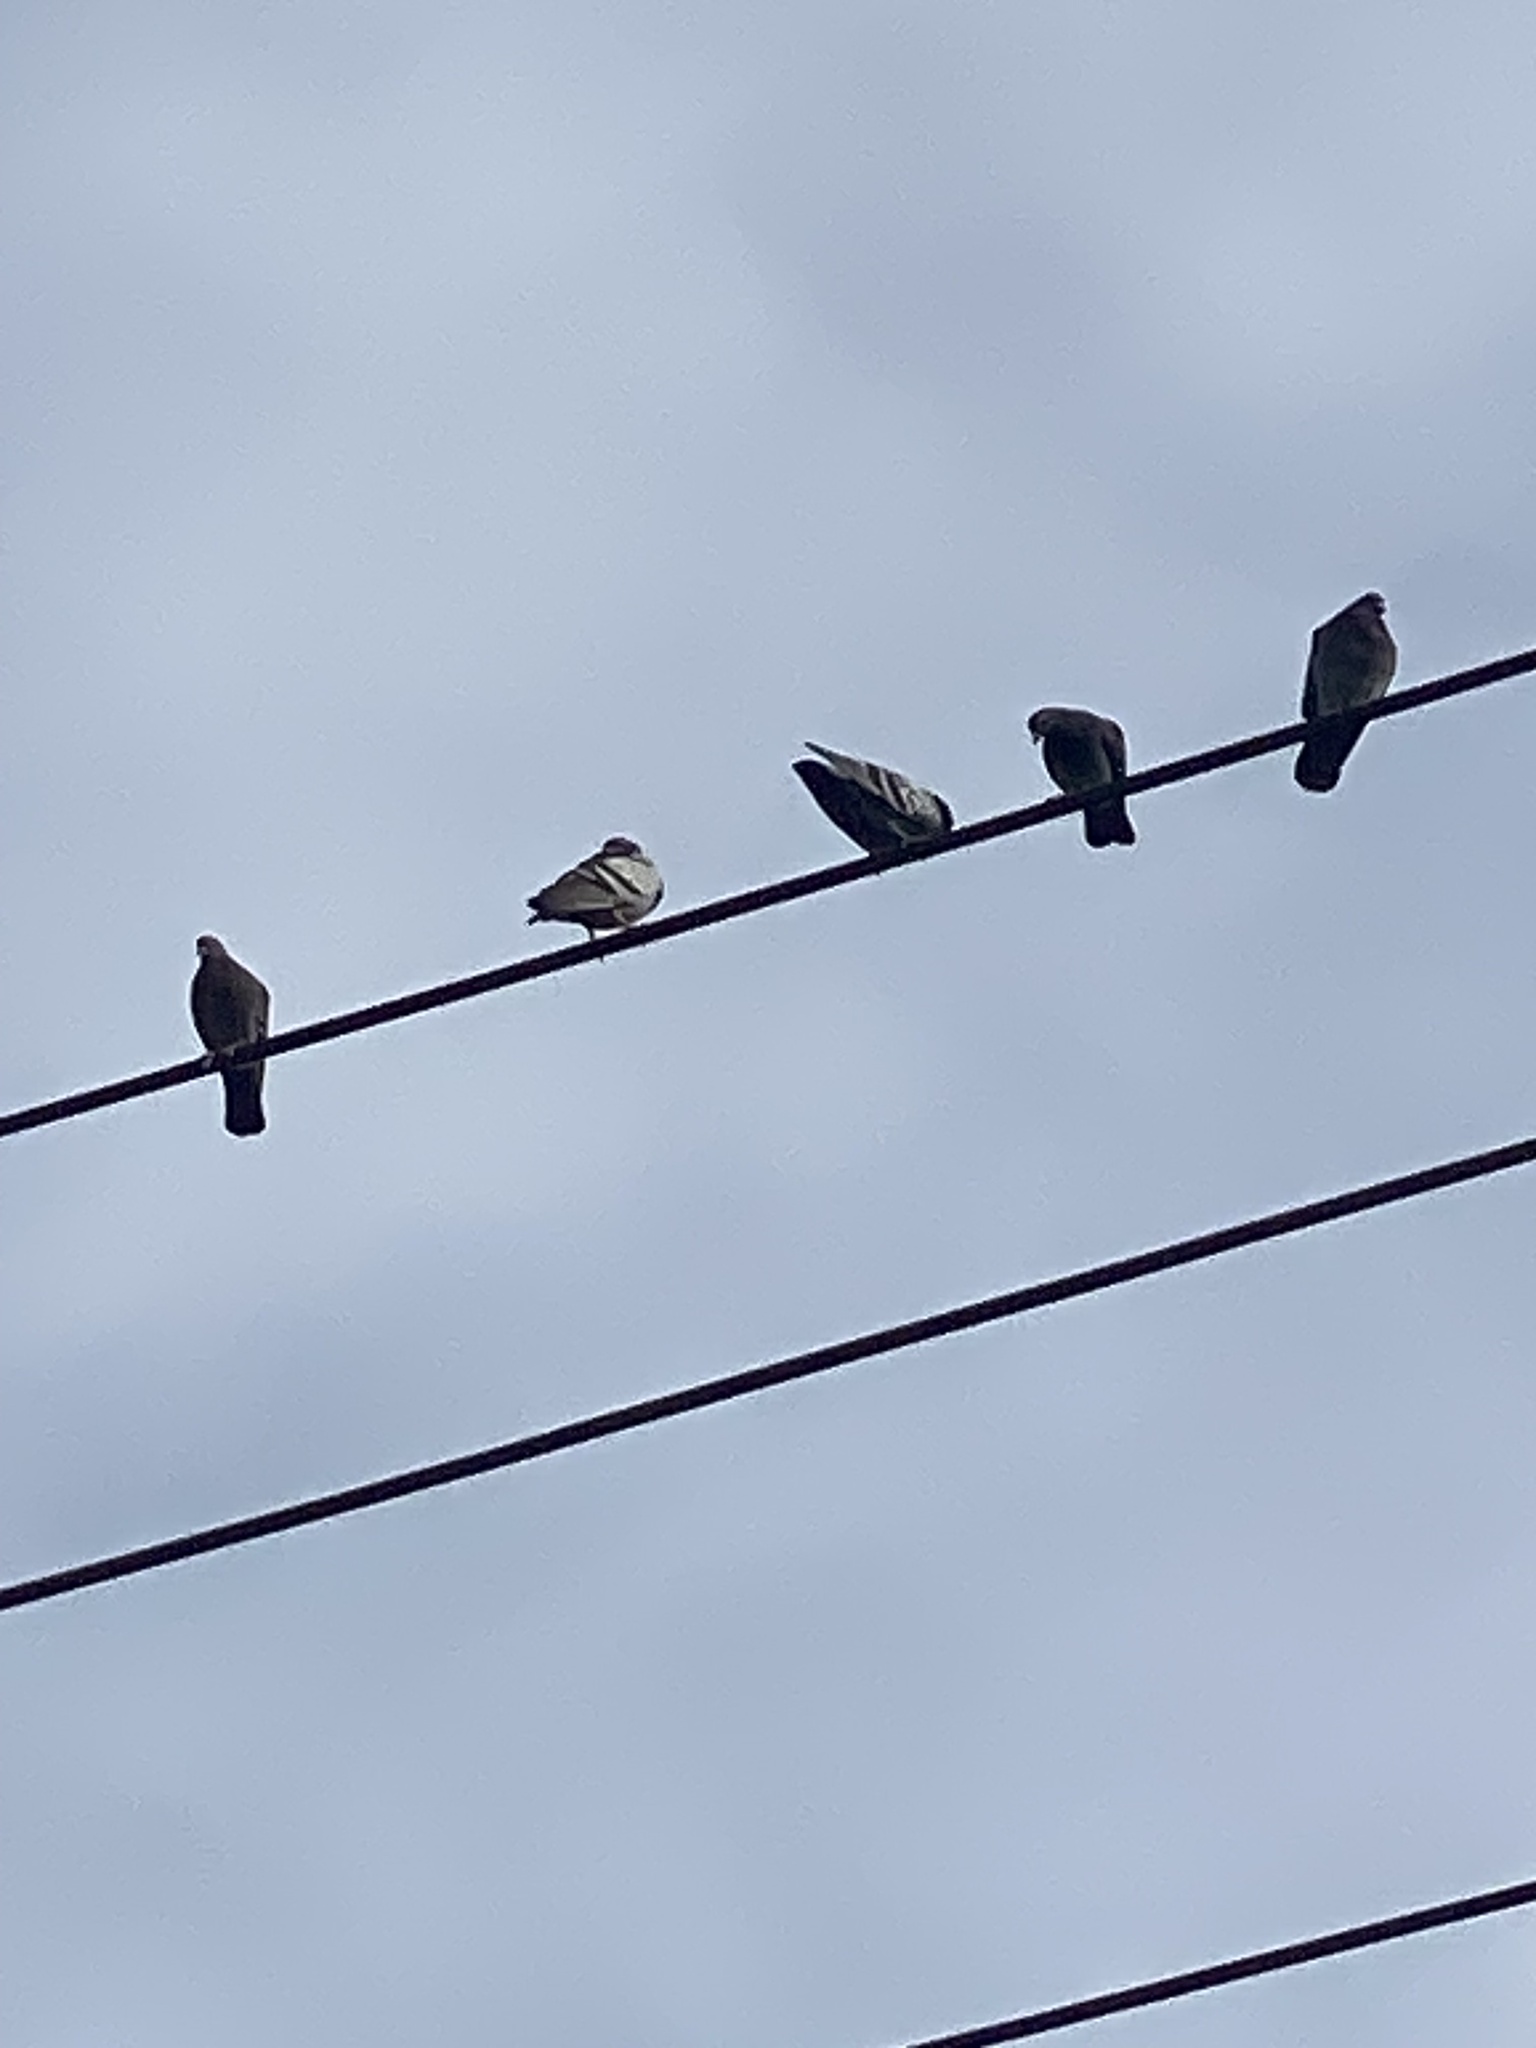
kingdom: Animalia
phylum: Chordata
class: Aves
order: Columbiformes
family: Columbidae
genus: Columba
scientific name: Columba livia
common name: Rock pigeon
